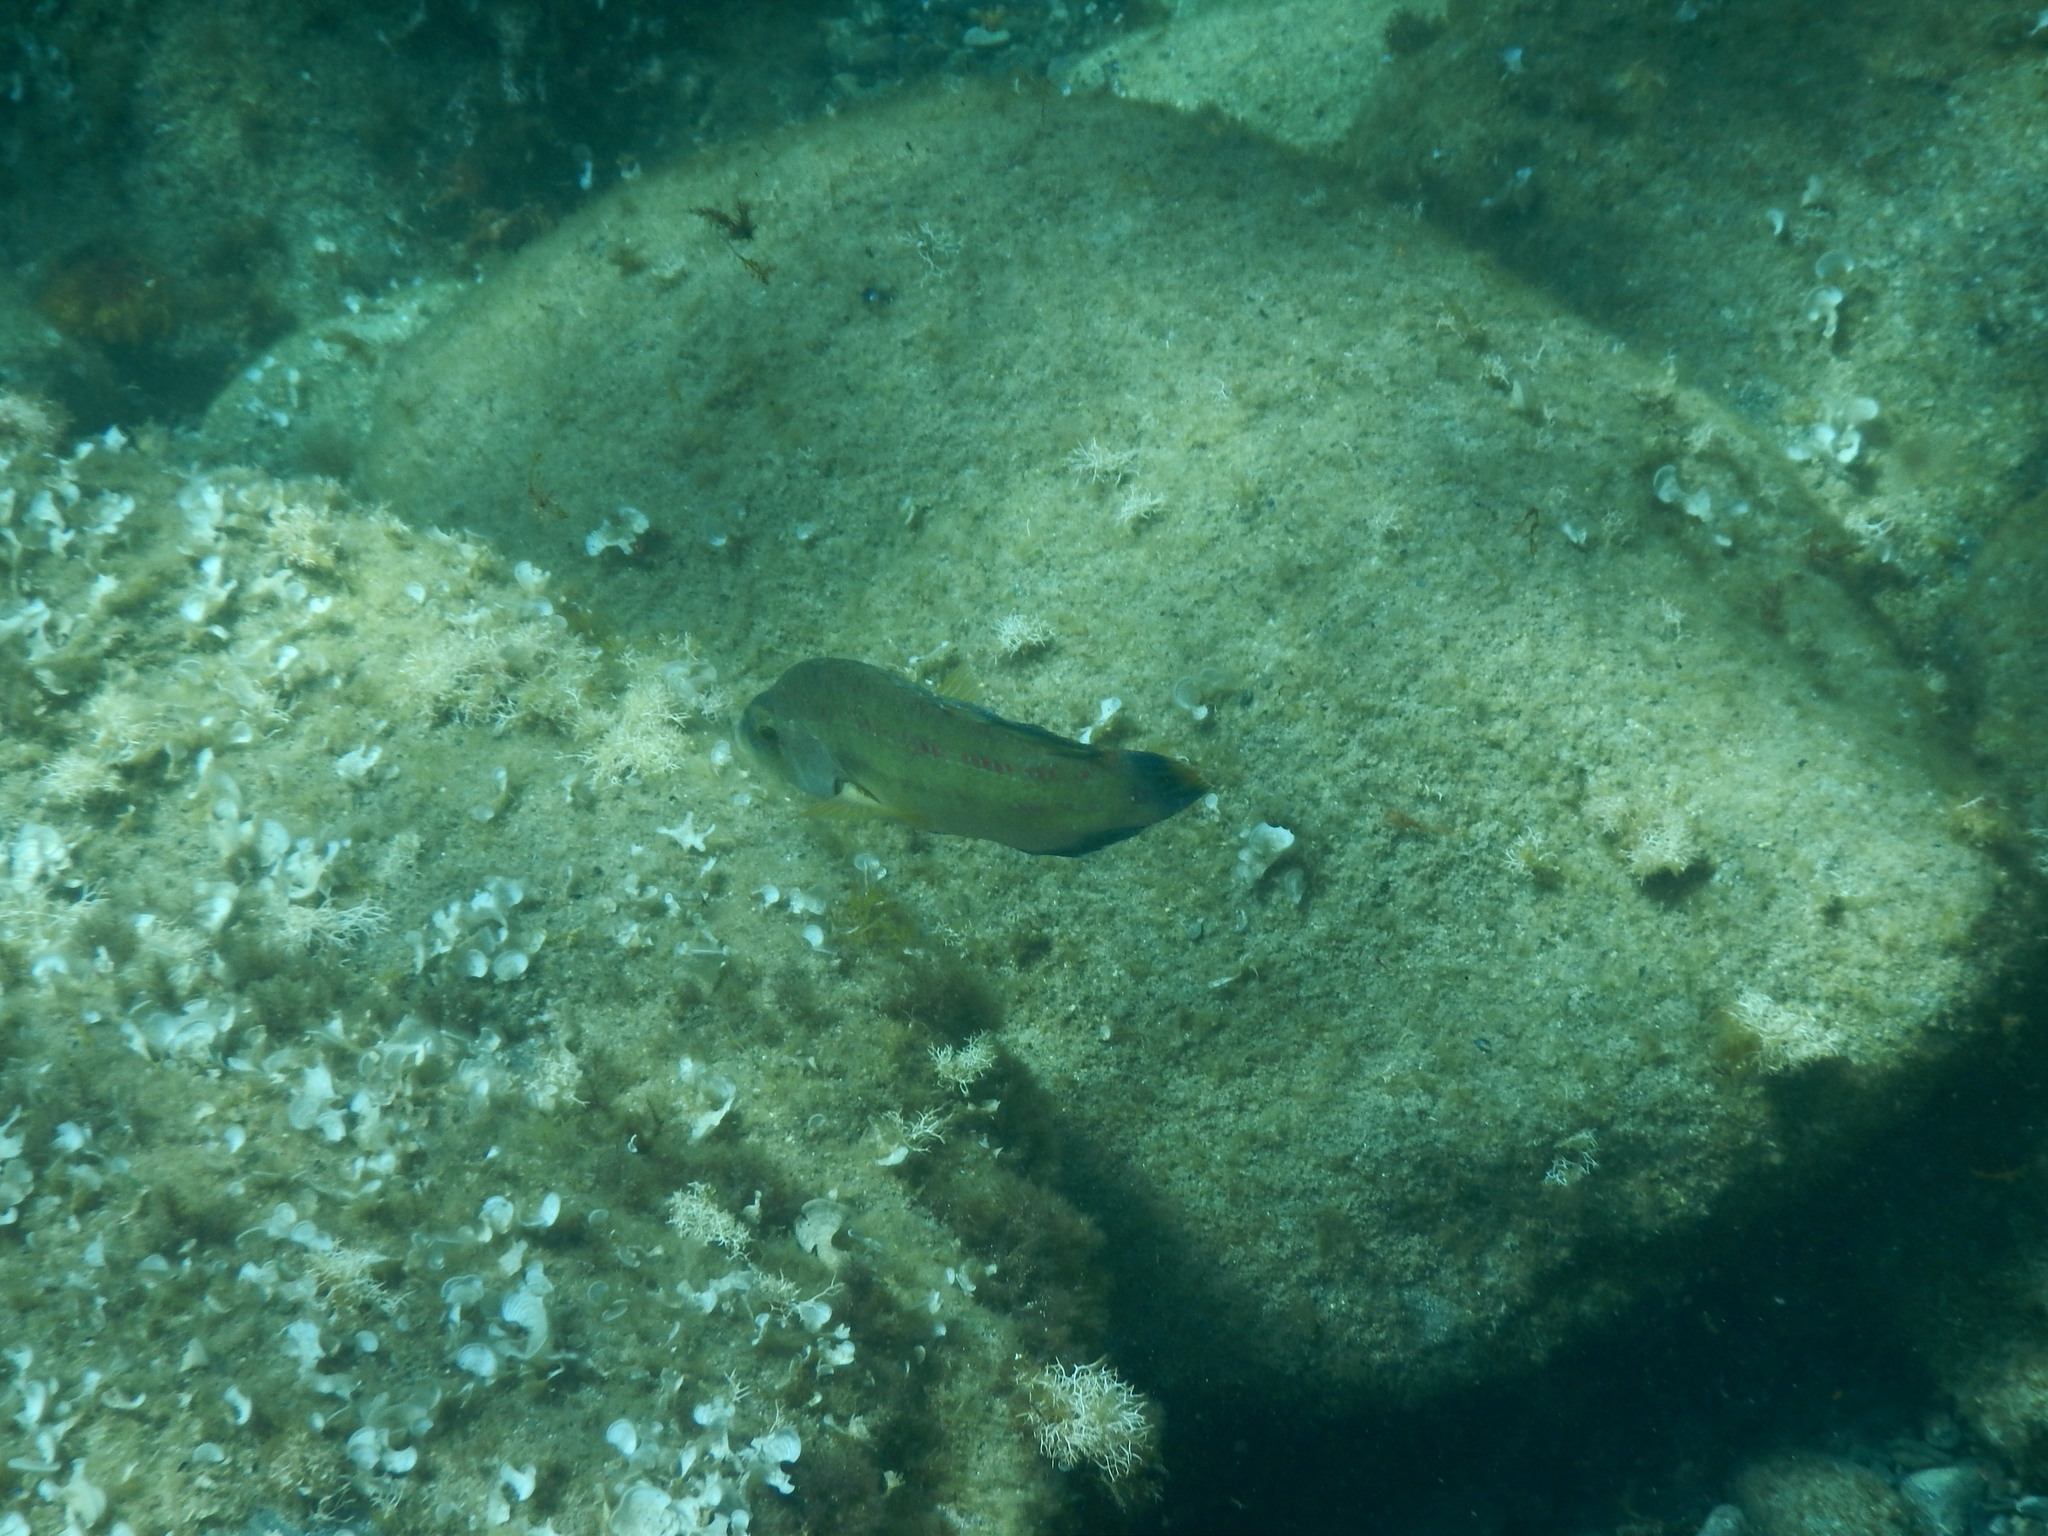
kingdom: Animalia
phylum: Chordata
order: Perciformes
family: Labridae
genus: Symphodus
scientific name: Symphodus tinca
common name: Peacock wrasse
